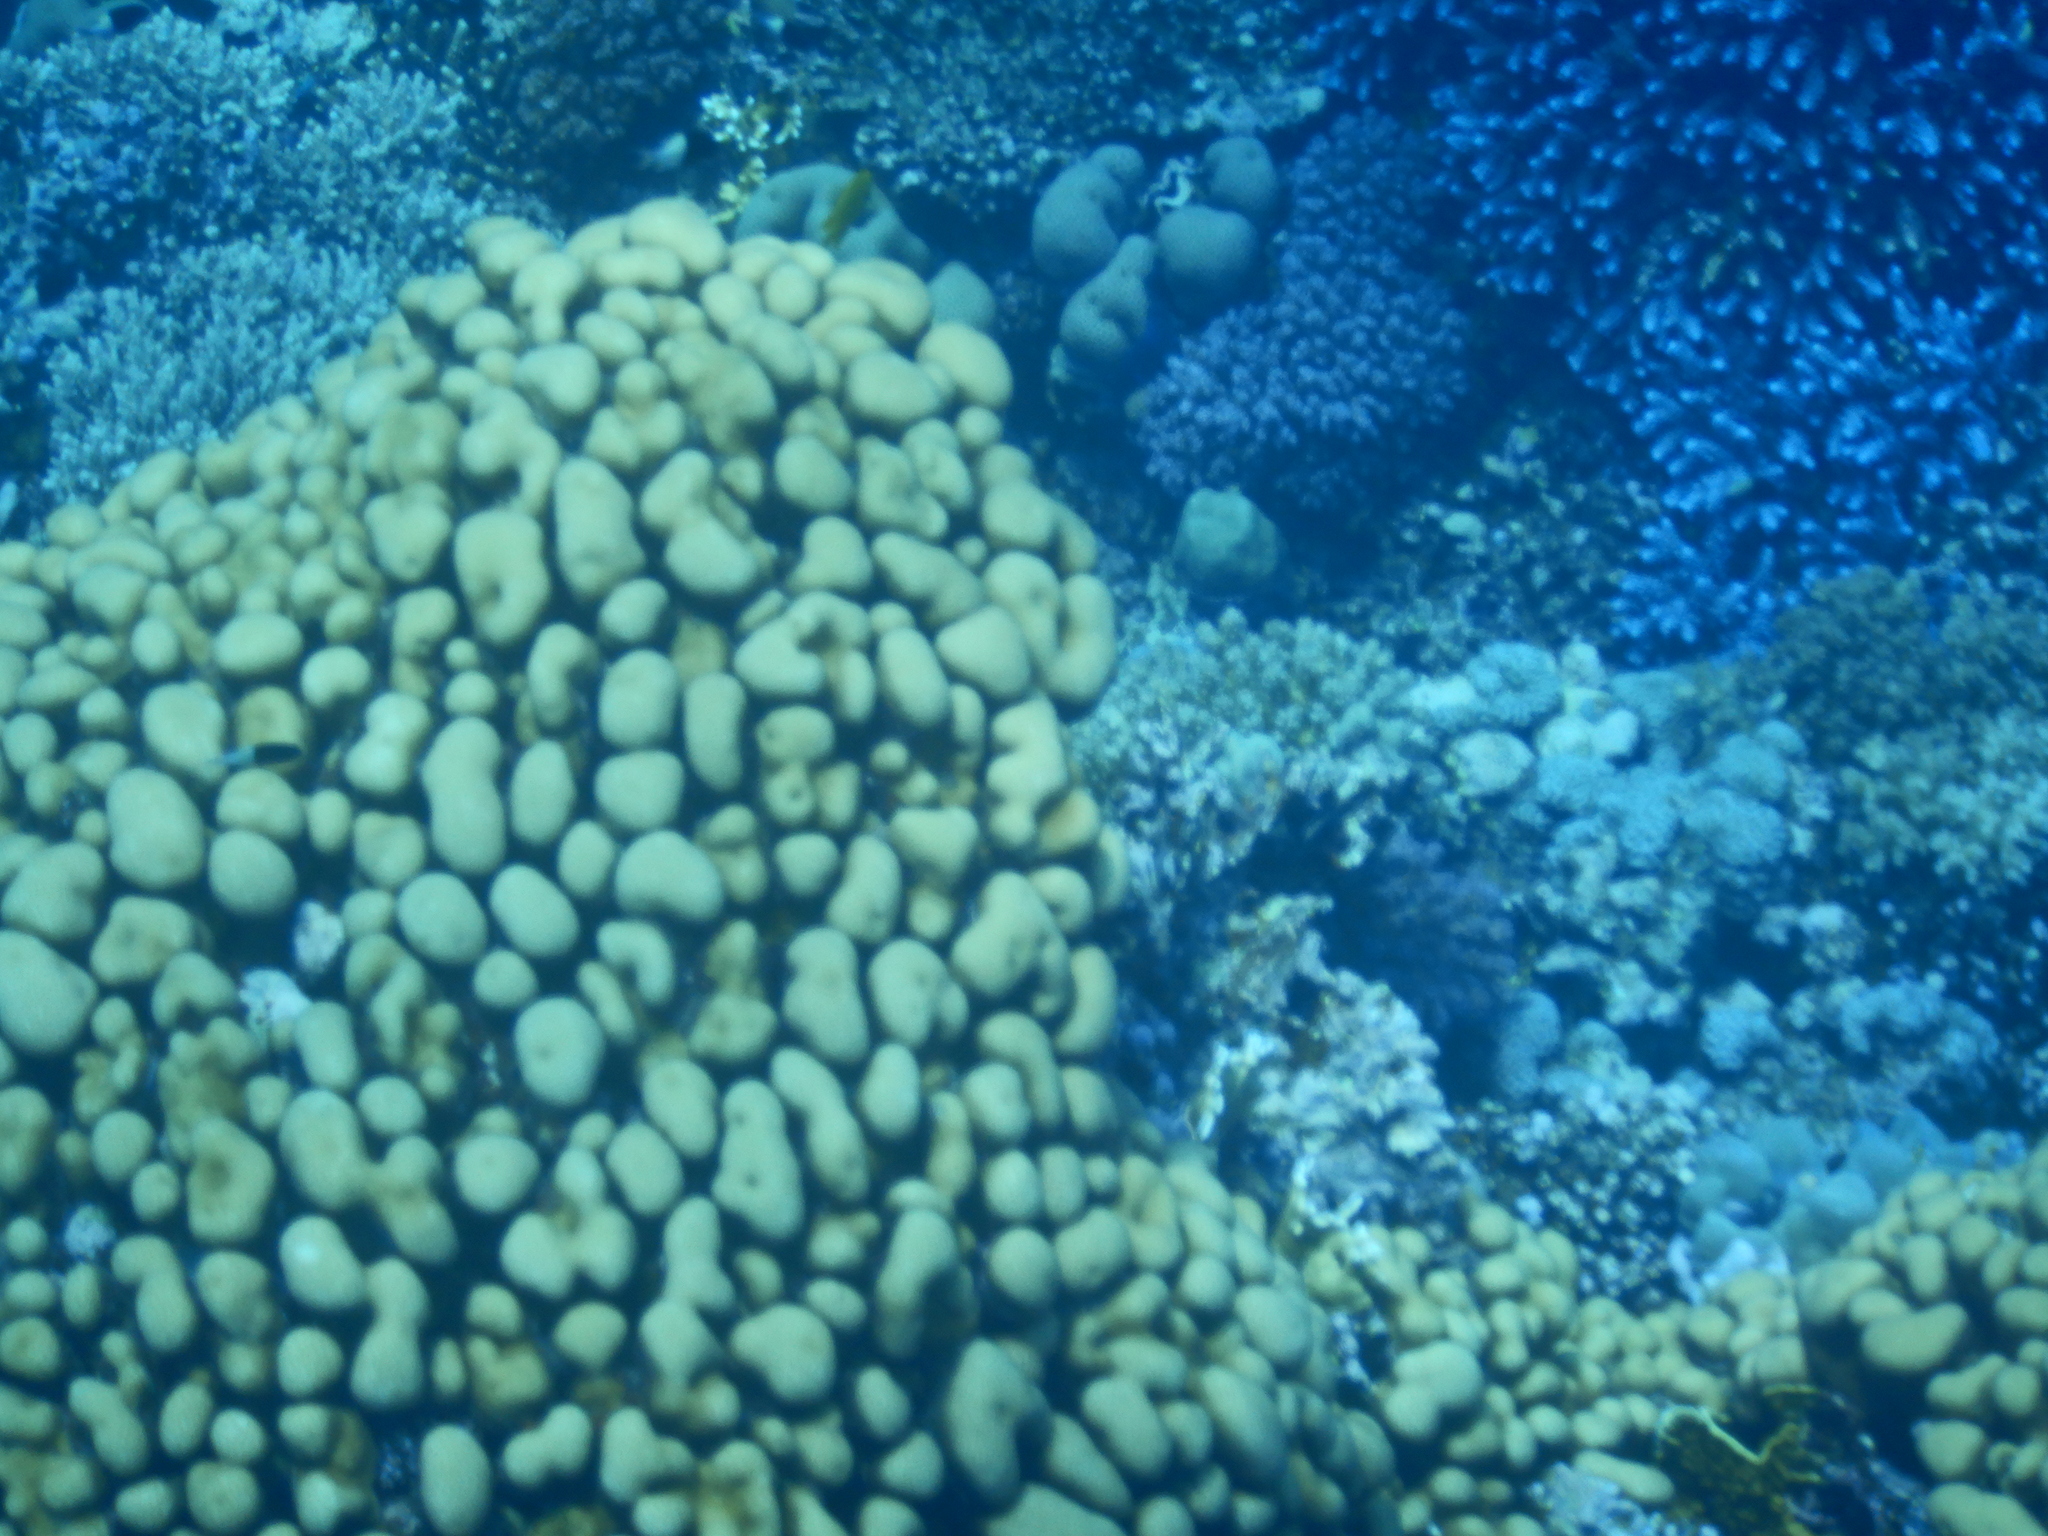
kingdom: Animalia
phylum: Cnidaria
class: Anthozoa
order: Scleractinia
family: Merulinidae
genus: Goniastrea
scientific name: Goniastrea stelligera
